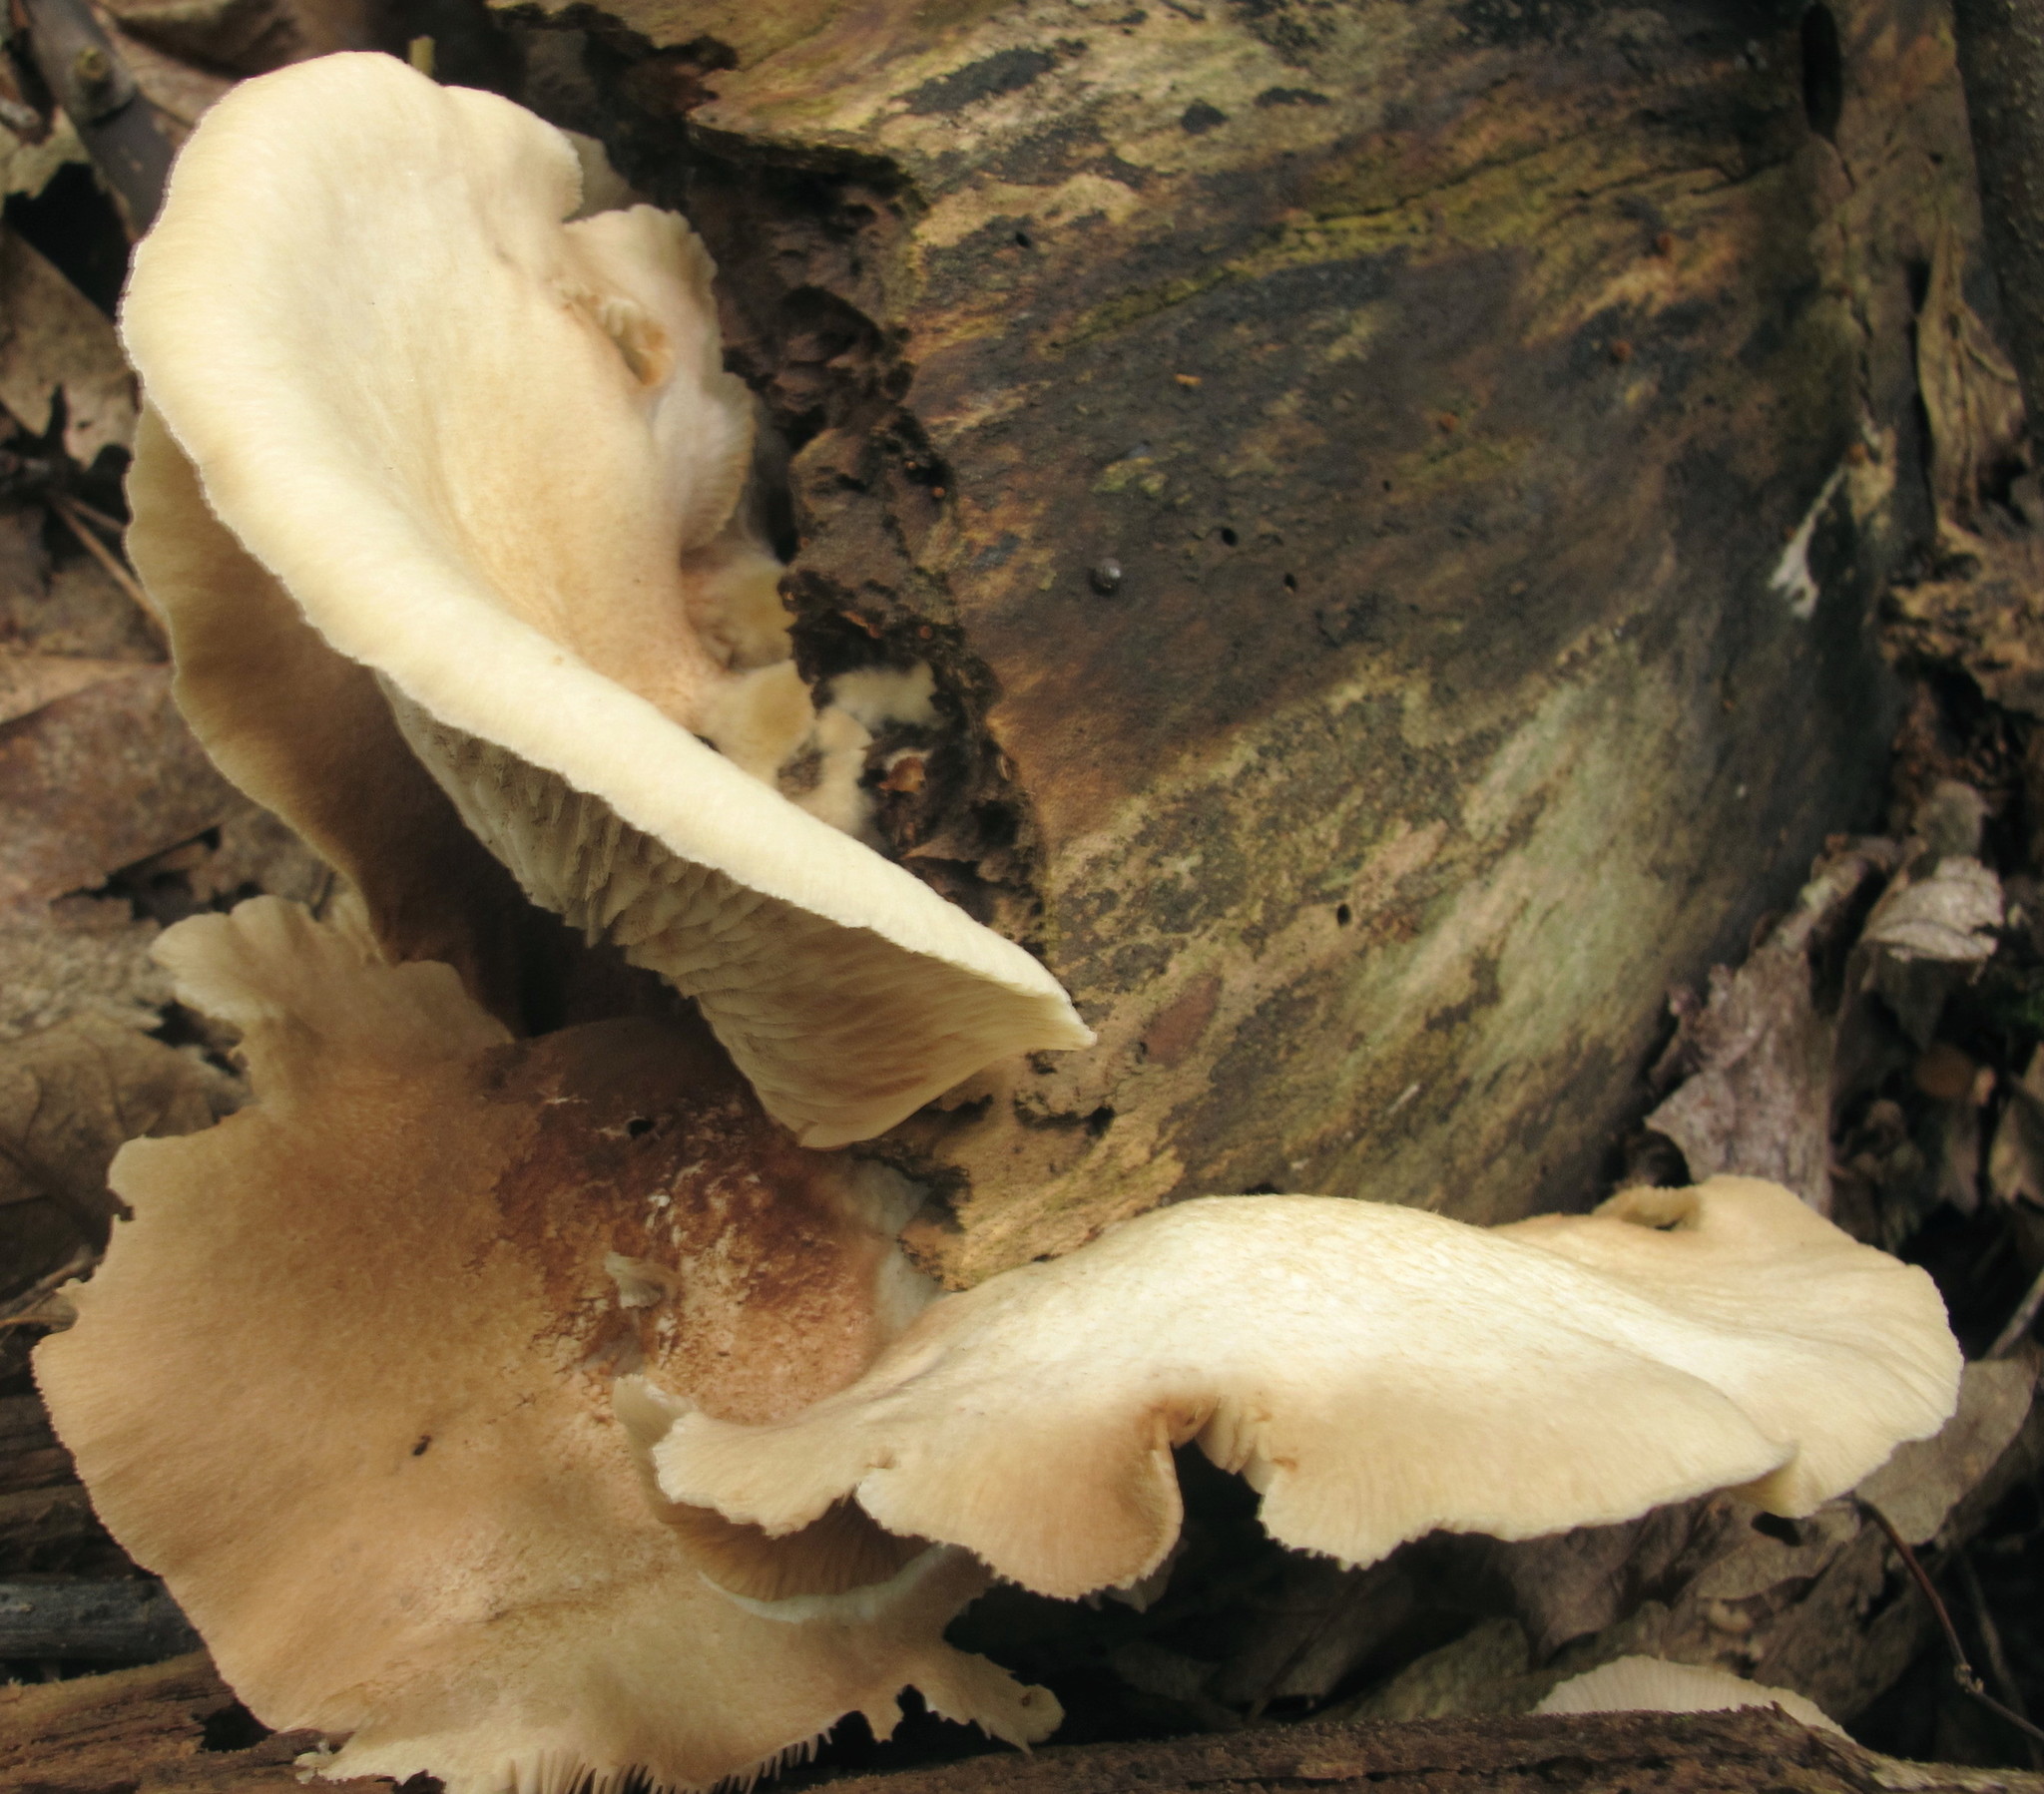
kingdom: Fungi
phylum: Basidiomycota
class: Agaricomycetes
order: Agaricales
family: Crepidotaceae
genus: Crepidotus
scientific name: Crepidotus malachius
